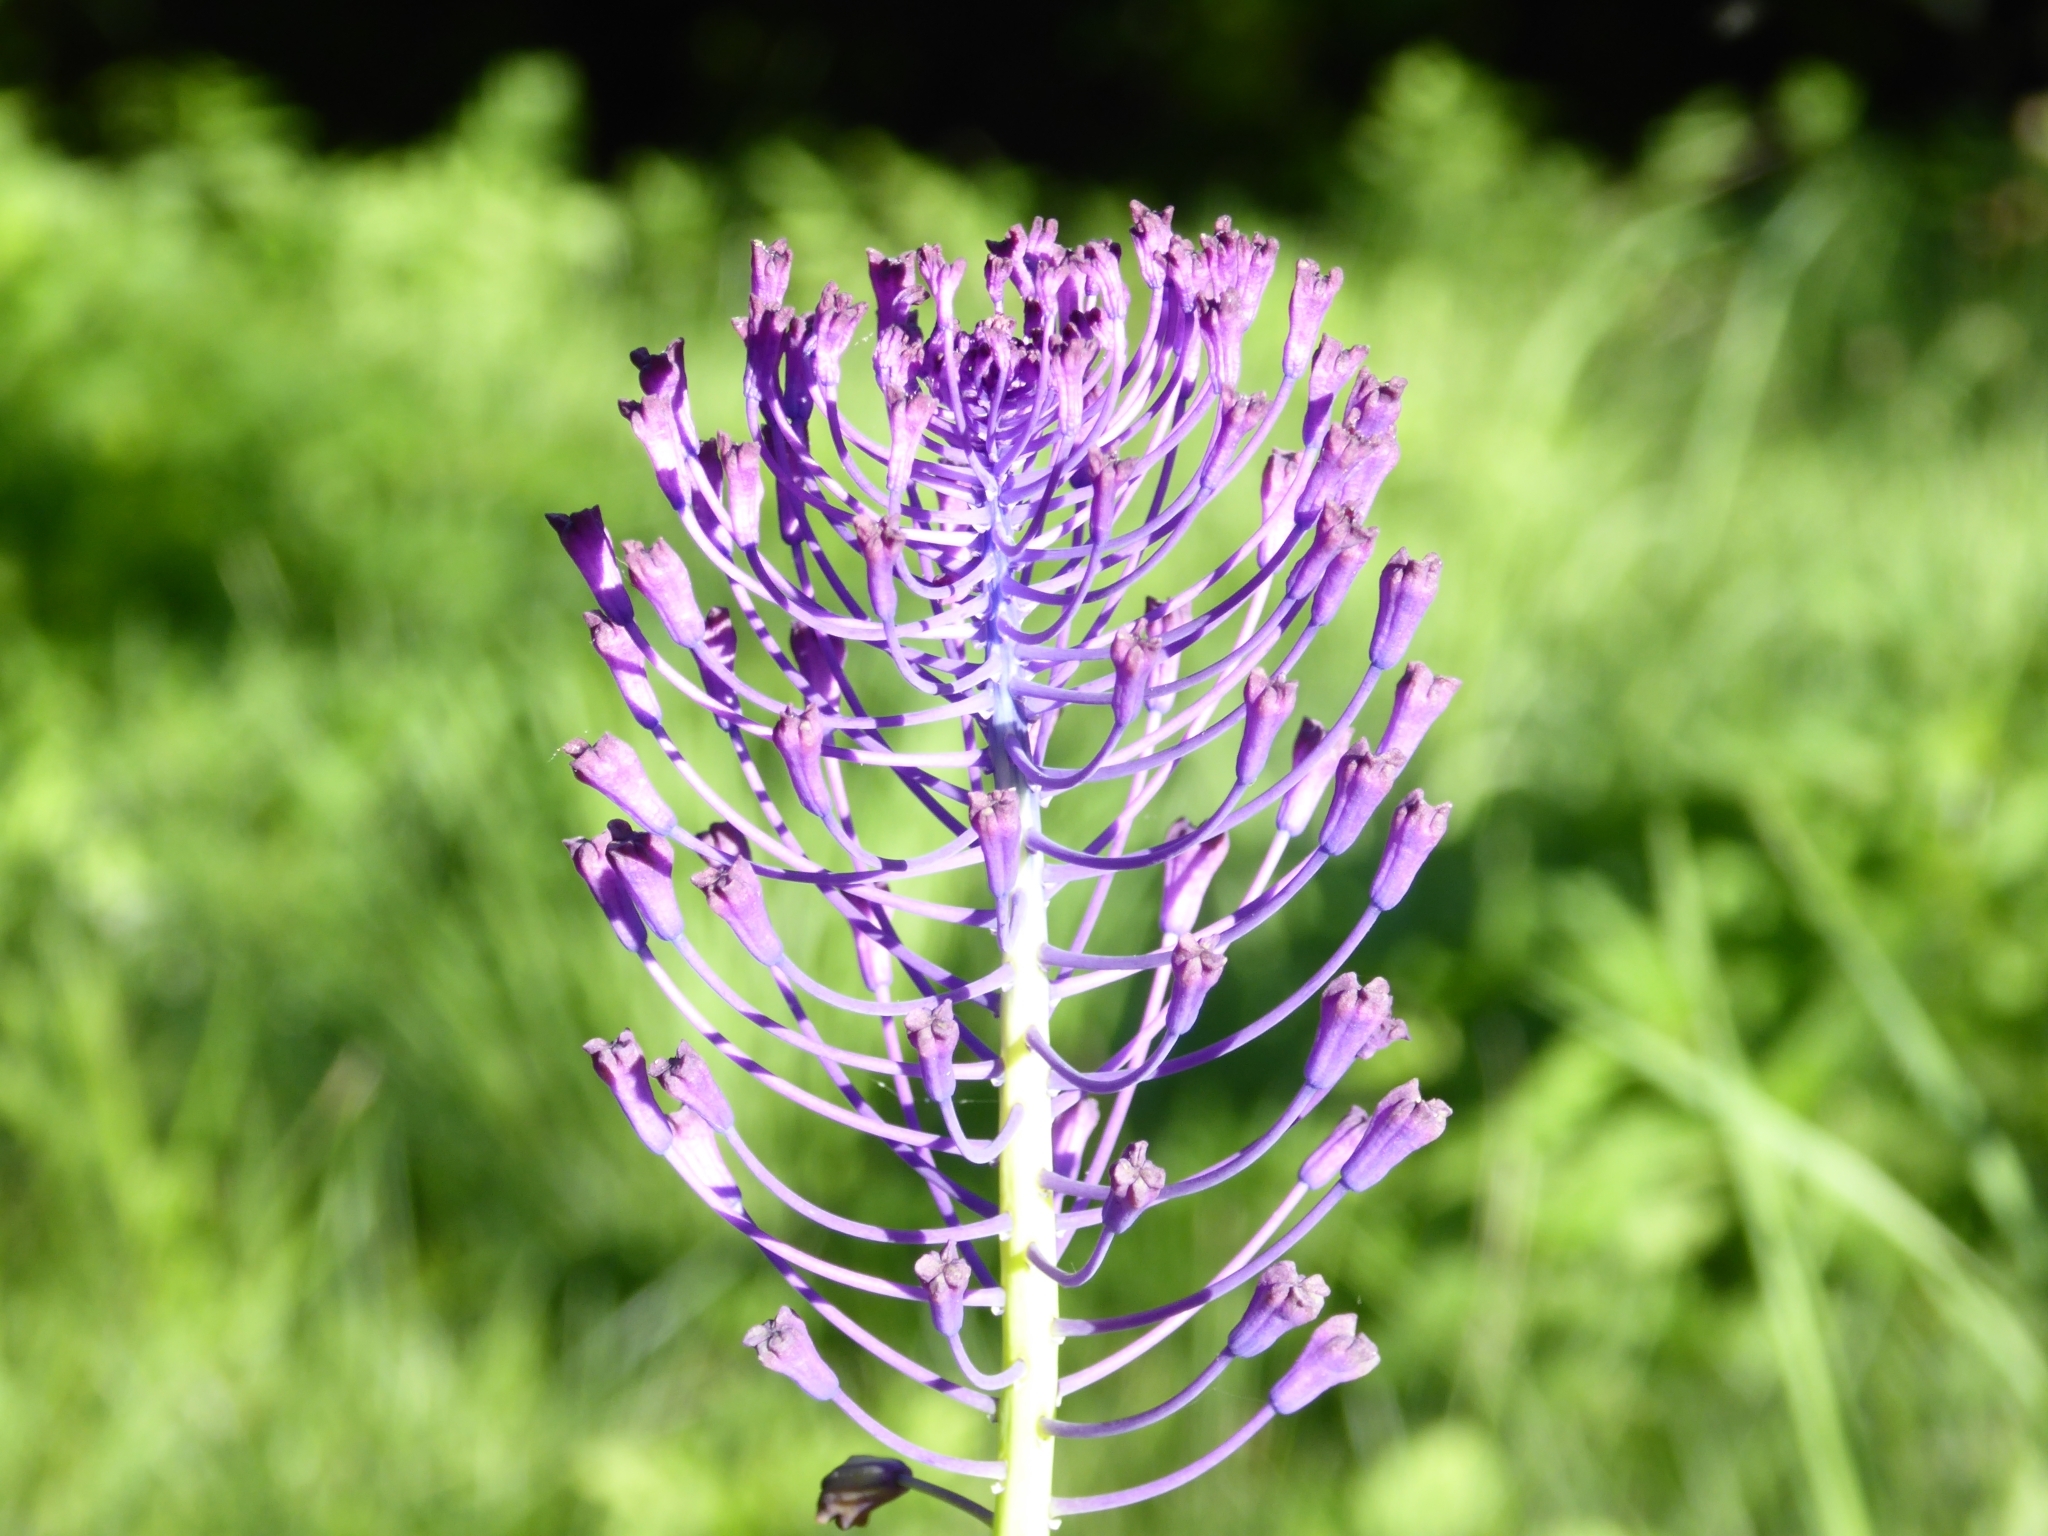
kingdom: Plantae
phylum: Tracheophyta
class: Liliopsida
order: Asparagales
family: Asparagaceae
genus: Muscari
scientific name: Muscari comosum
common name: Tassel hyacinth
